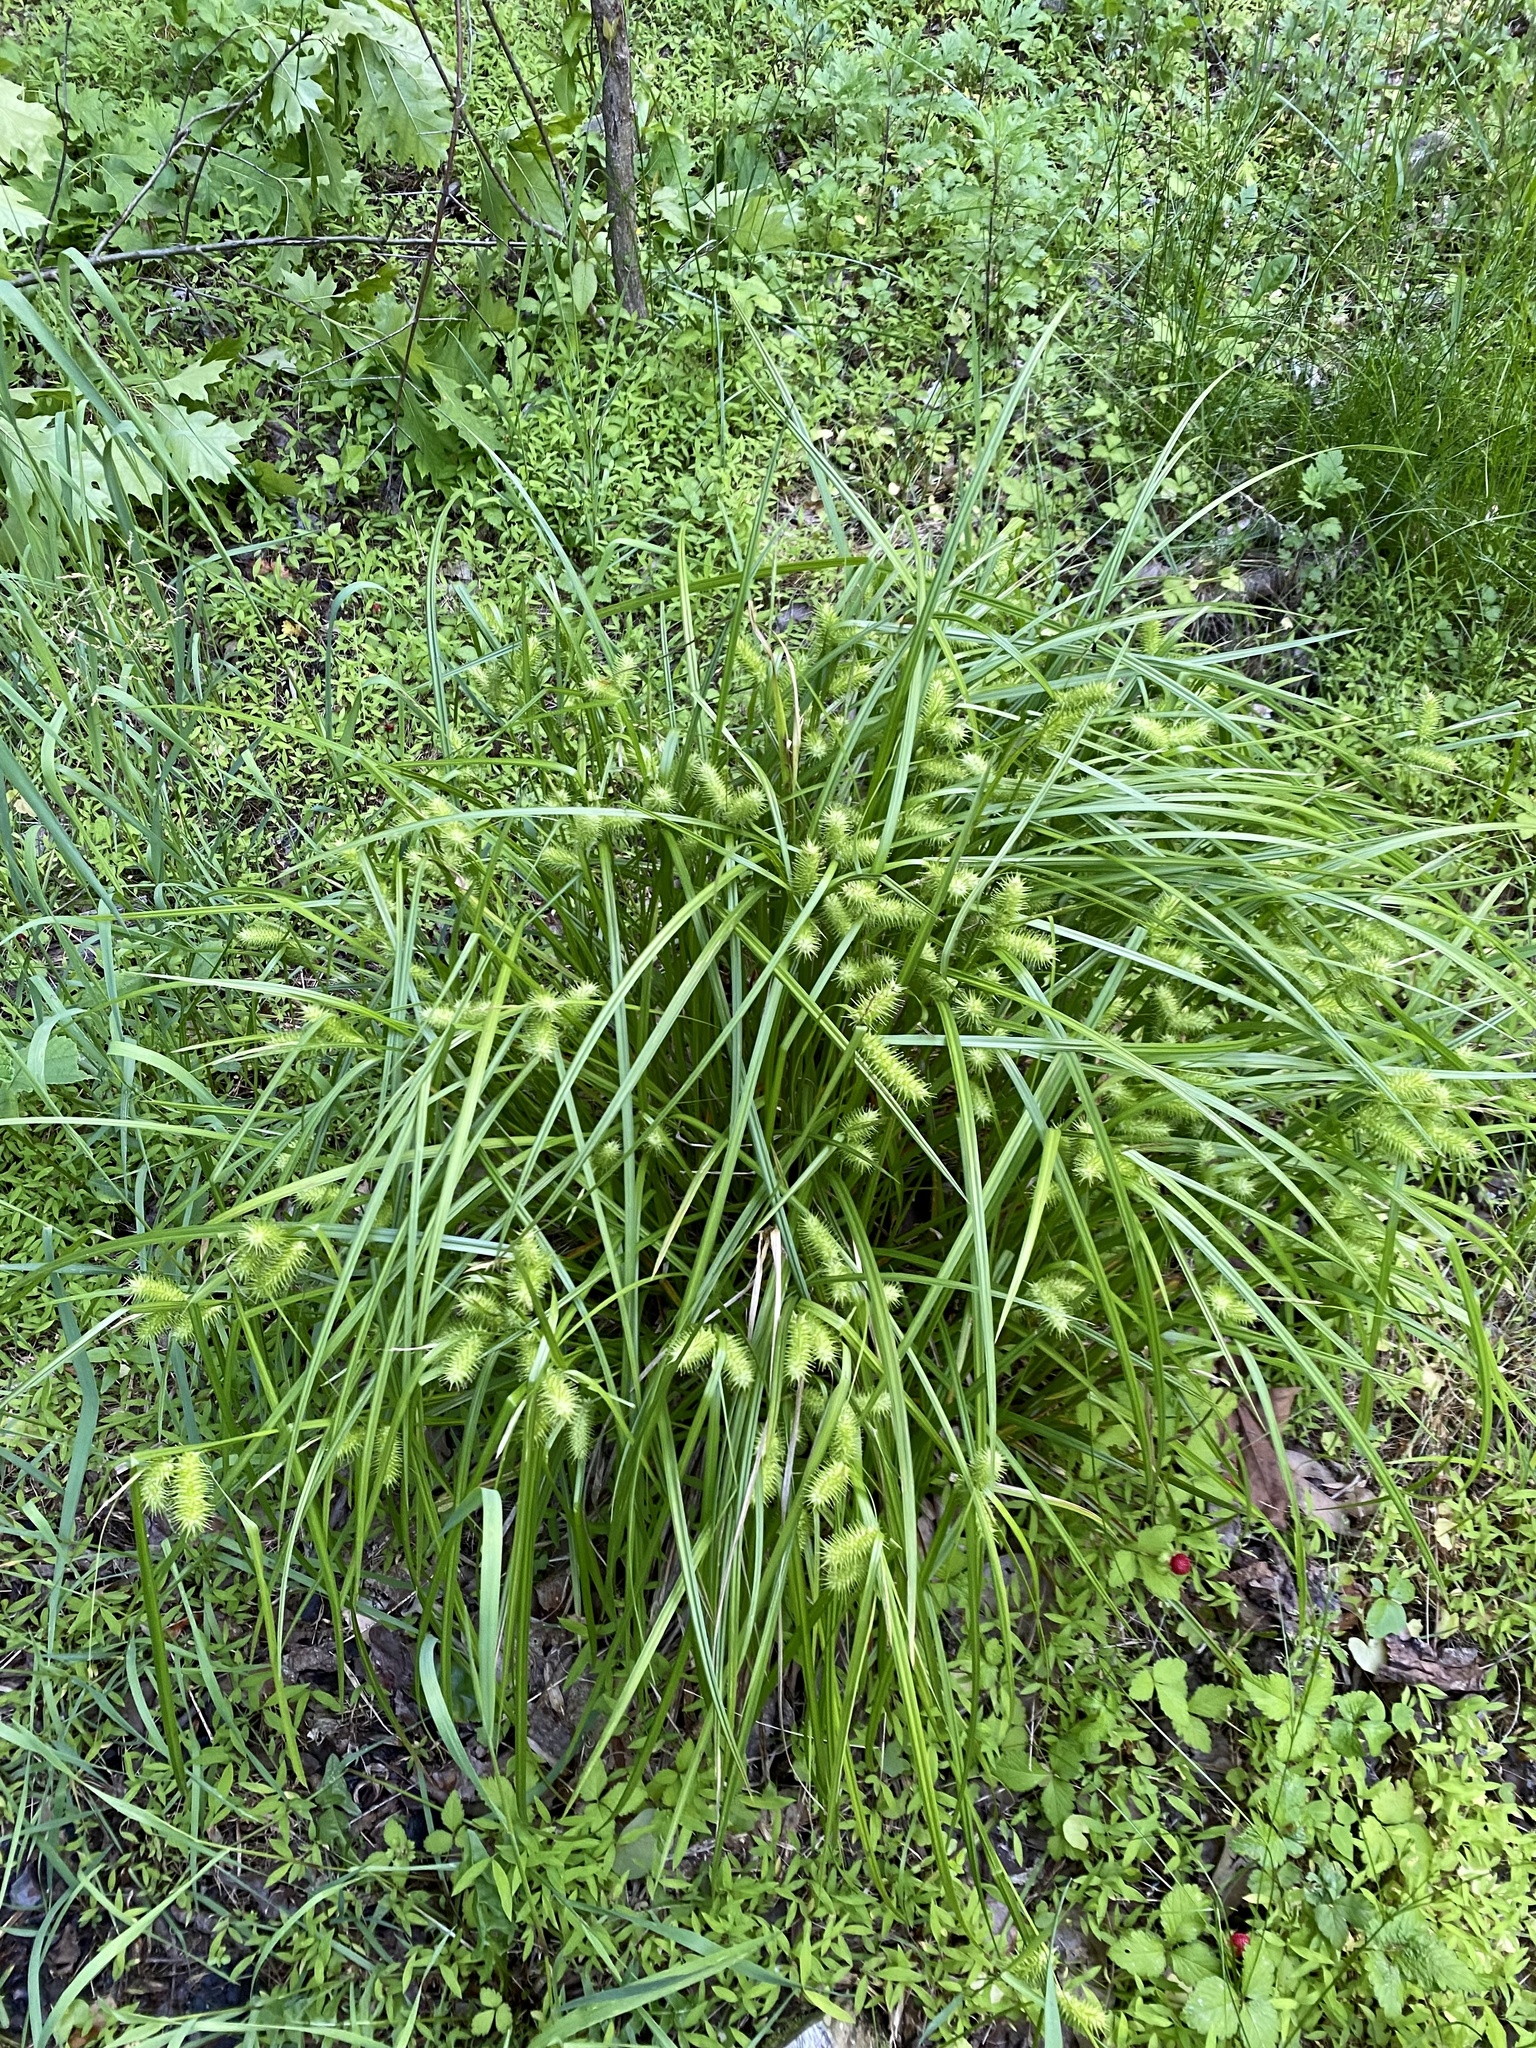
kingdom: Plantae
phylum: Tracheophyta
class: Liliopsida
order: Poales
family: Cyperaceae
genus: Carex
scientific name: Carex lurida
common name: Sallow sedge
